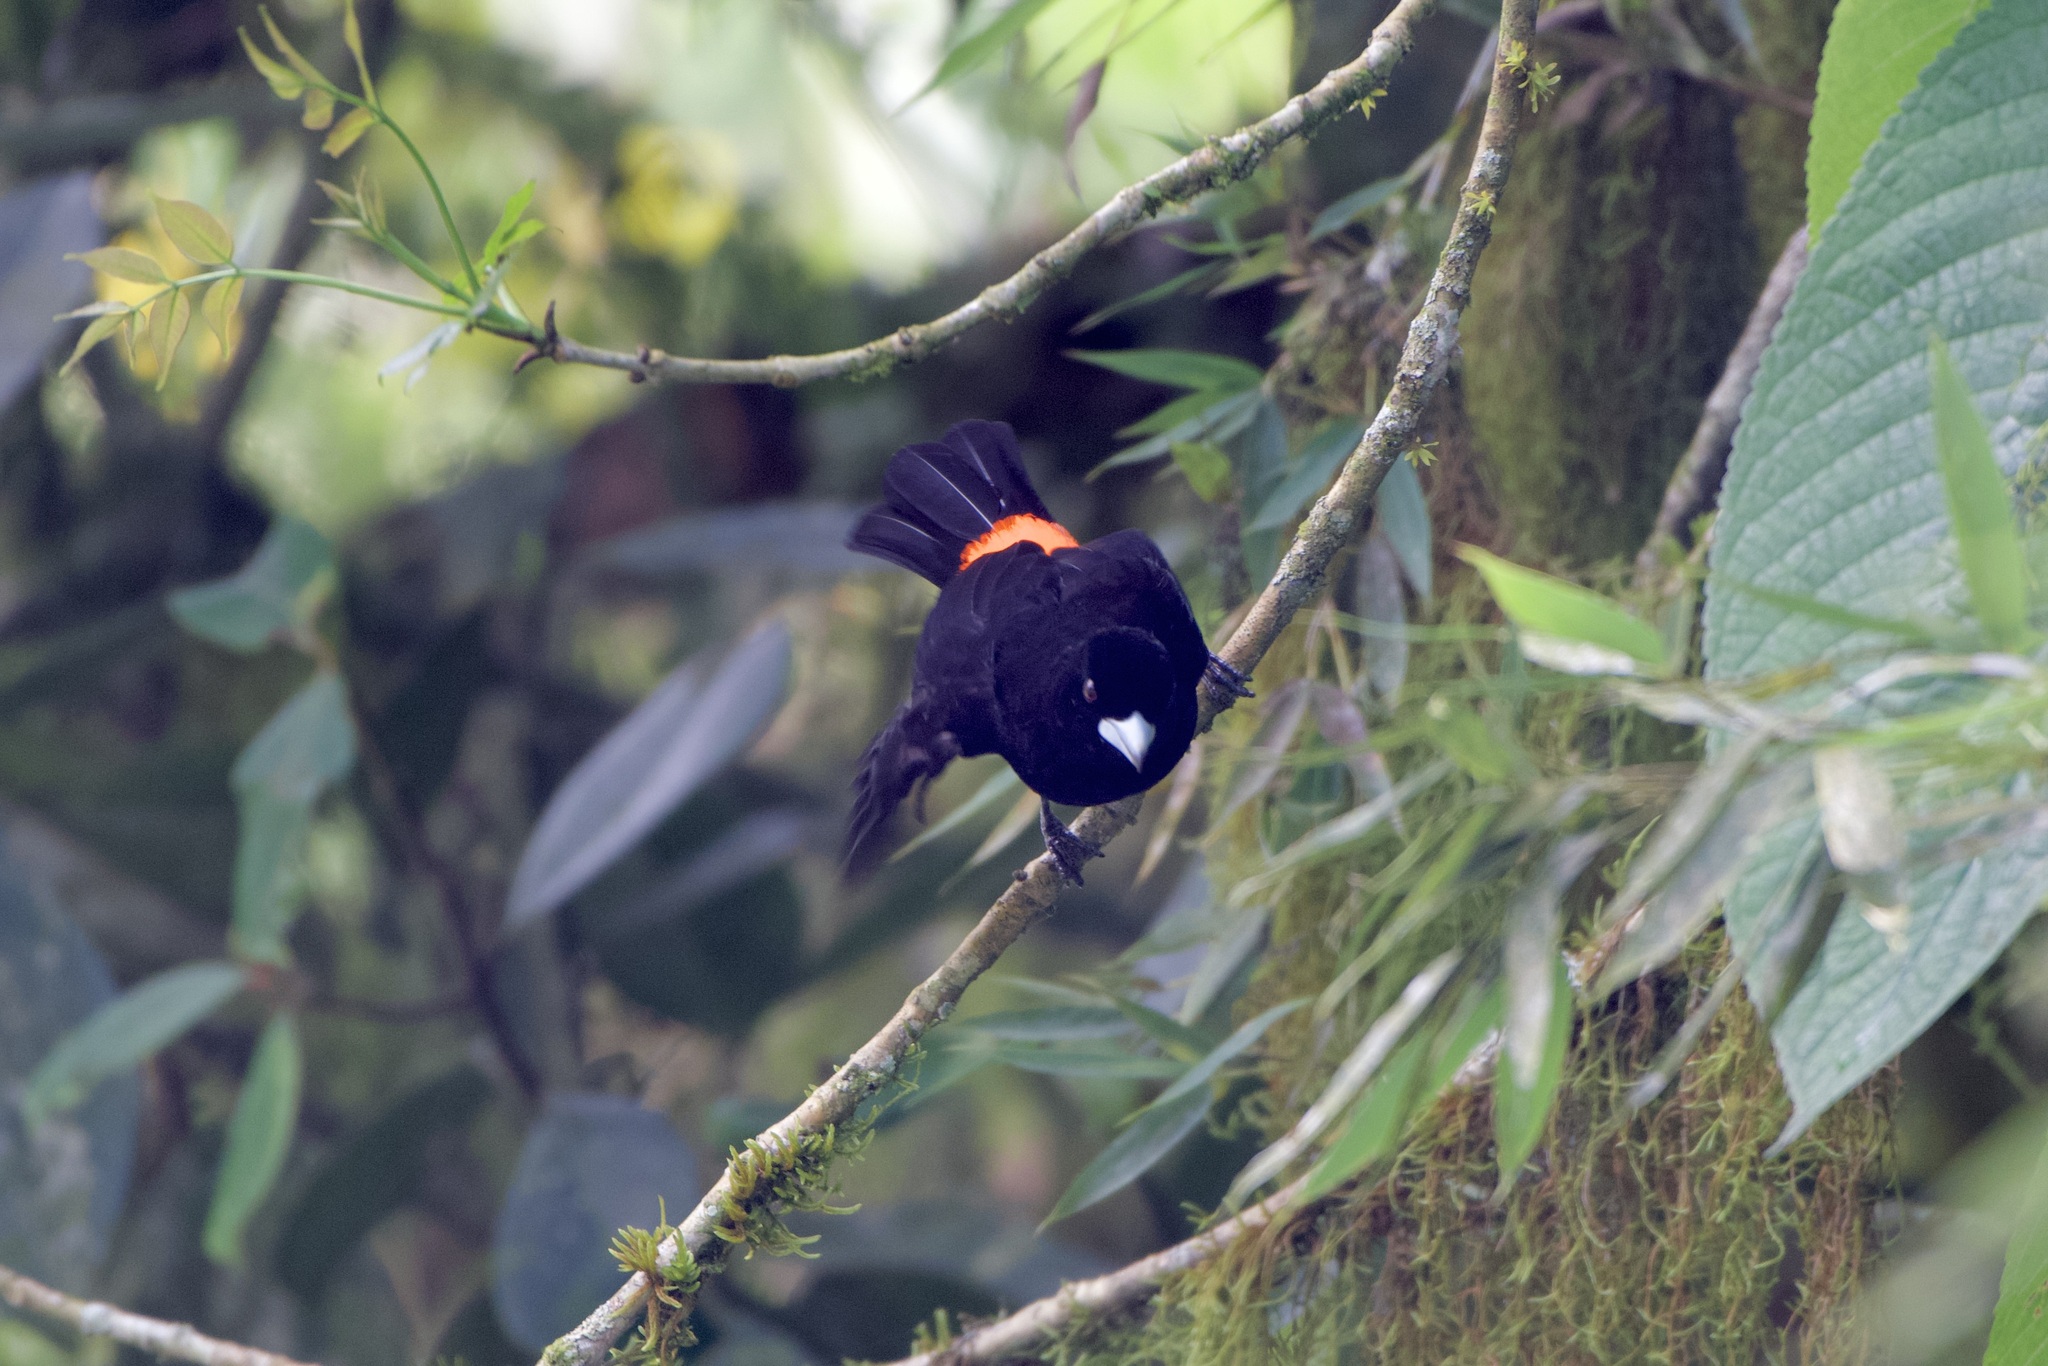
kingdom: Animalia
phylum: Chordata
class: Aves
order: Passeriformes
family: Thraupidae
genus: Ramphocelus
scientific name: Ramphocelus flammigerus
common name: Flame-rumped tanager
